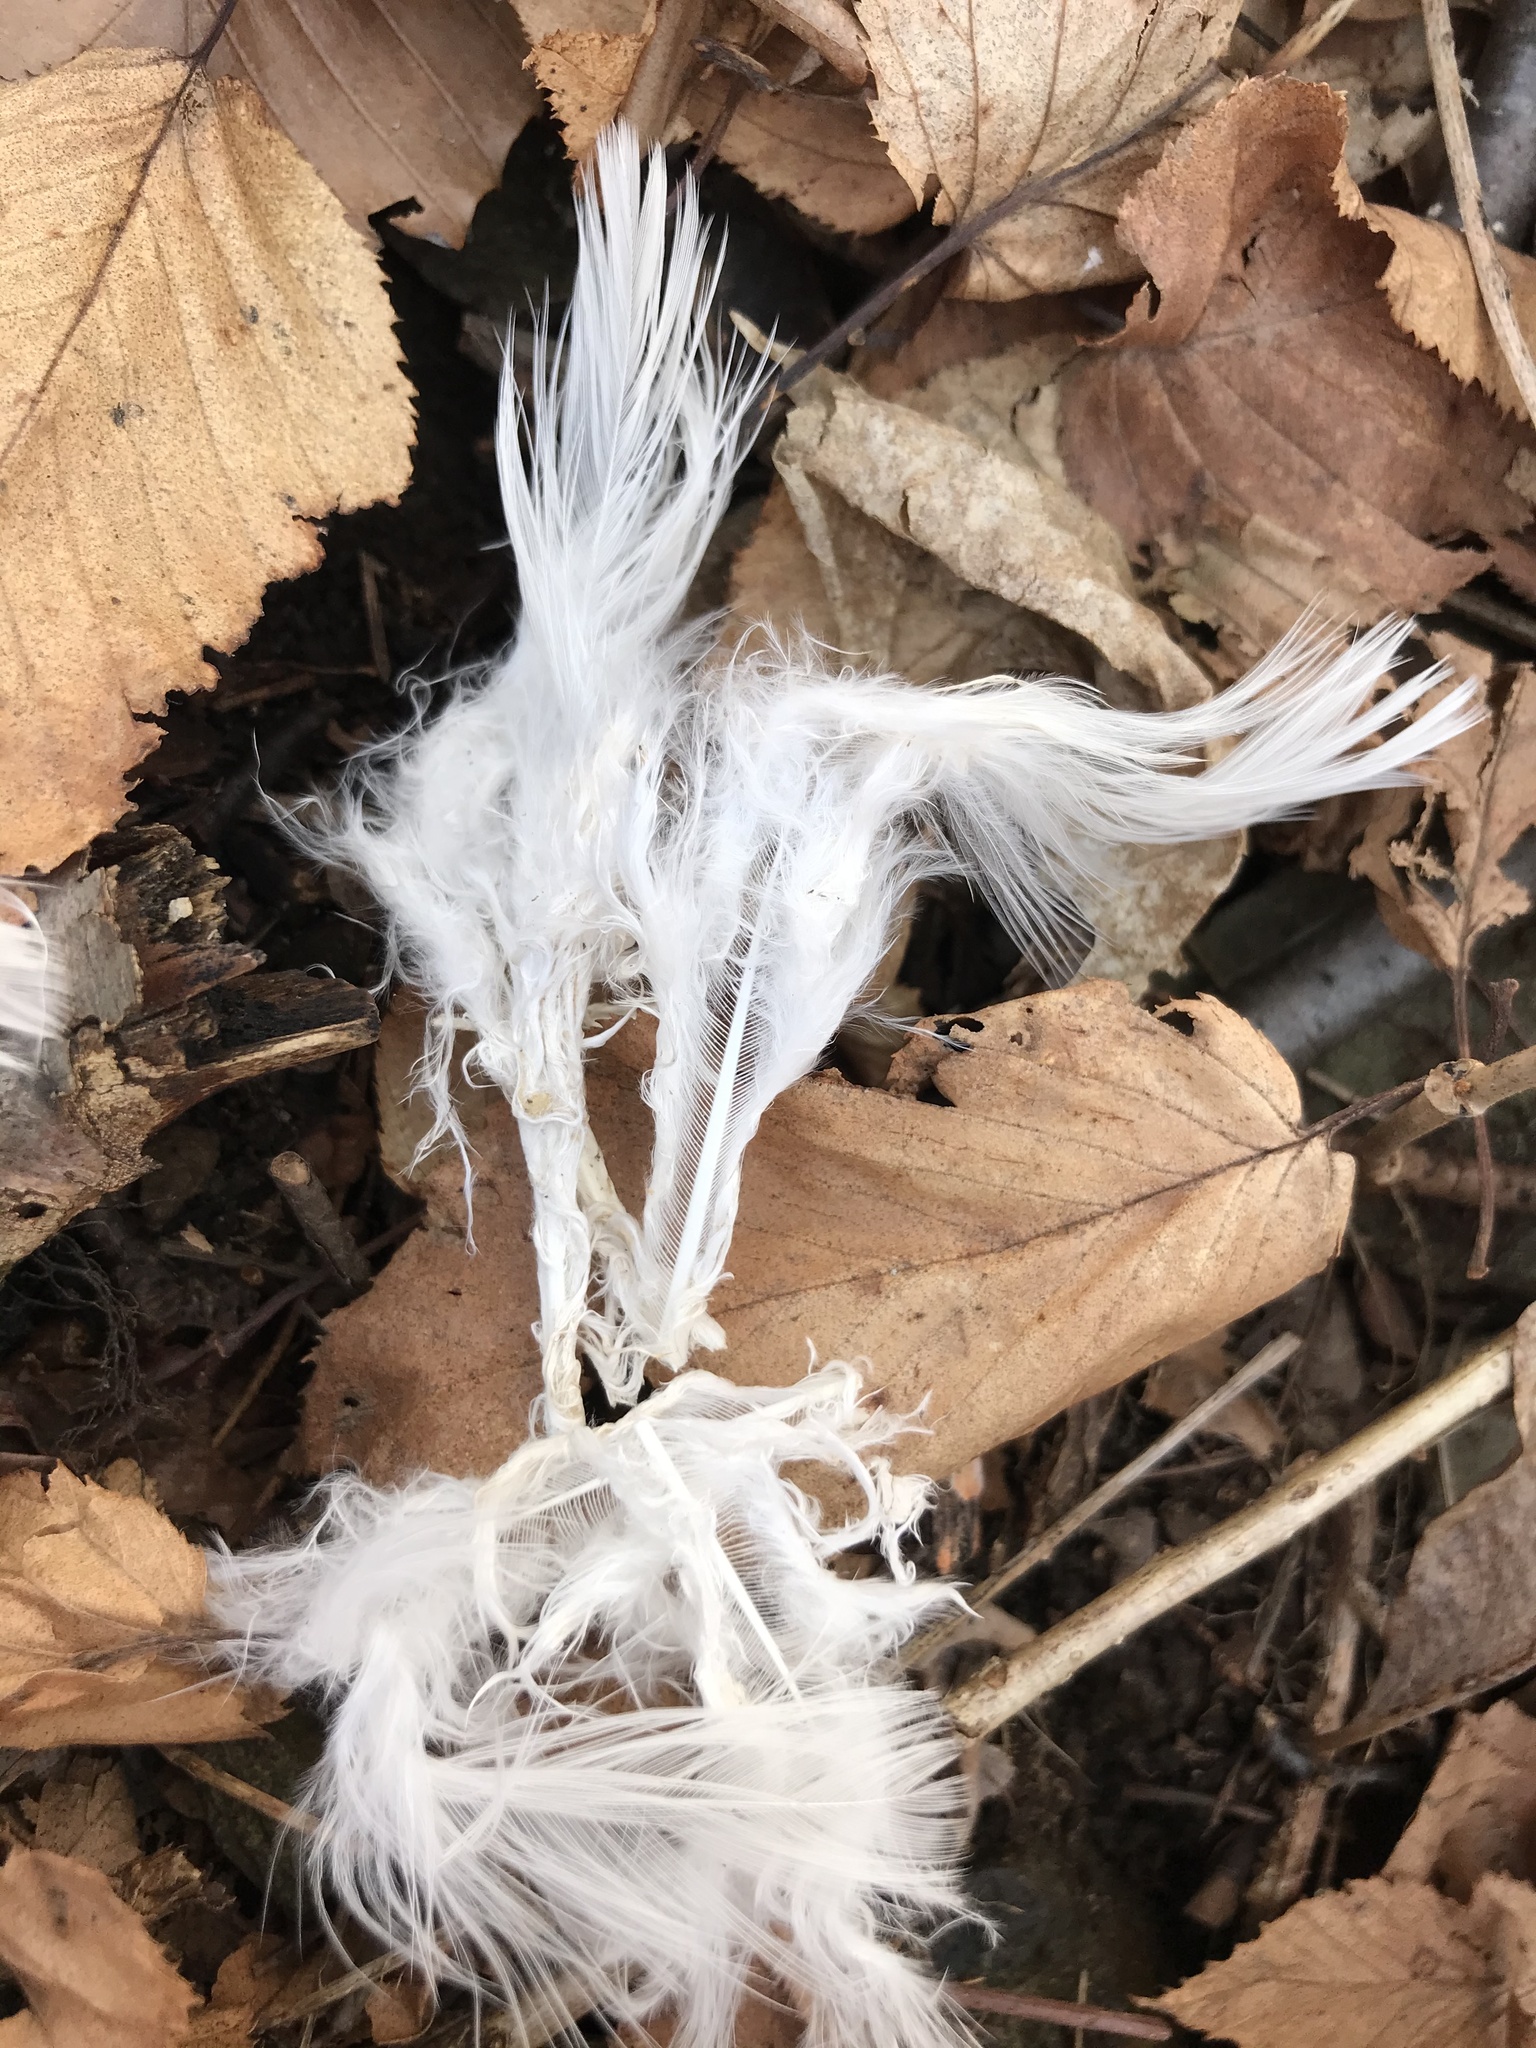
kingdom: Animalia
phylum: Chordata
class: Aves
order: Galliformes
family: Phasianidae
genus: Meleagris
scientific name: Meleagris gallopavo
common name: Wild turkey
